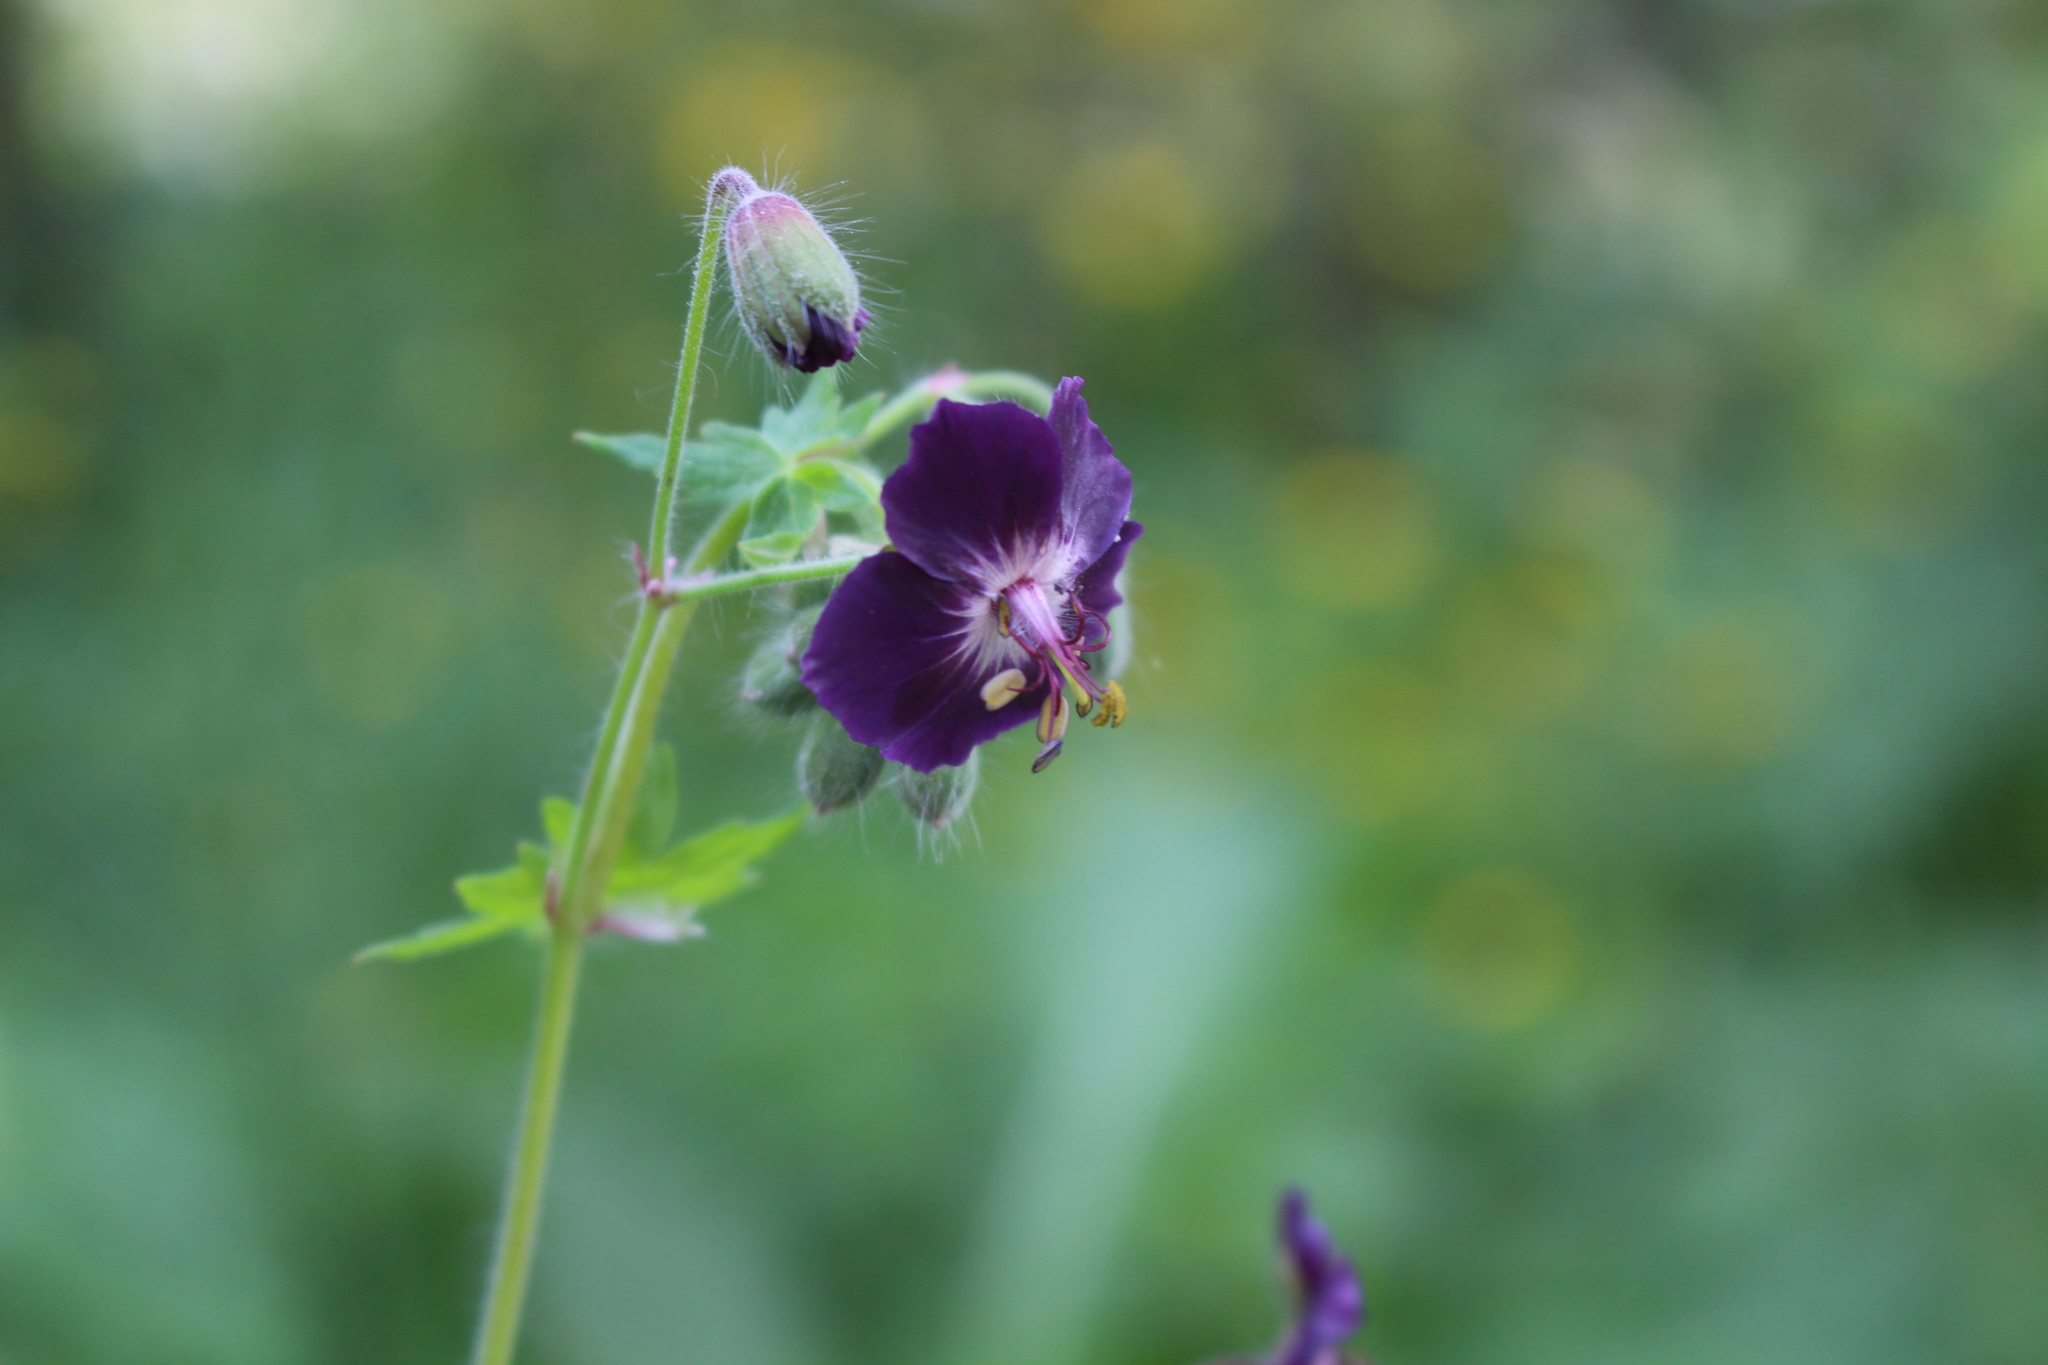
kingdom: Plantae
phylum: Tracheophyta
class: Magnoliopsida
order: Geraniales
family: Geraniaceae
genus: Geranium
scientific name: Geranium phaeum
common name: Dusky crane's-bill
